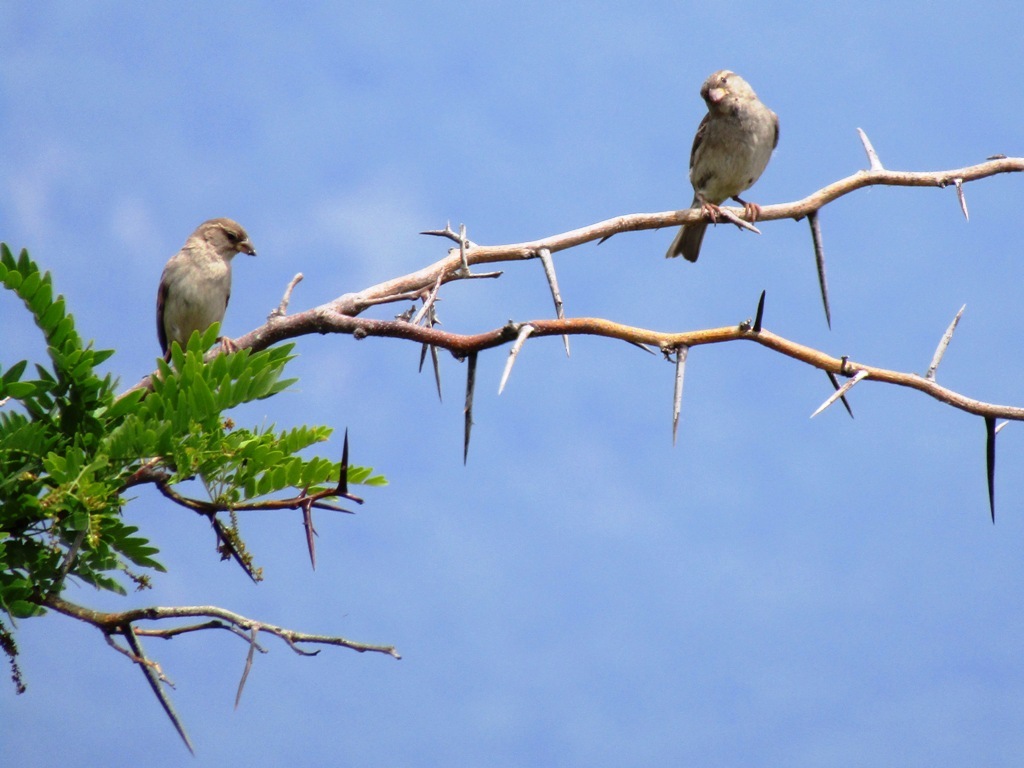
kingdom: Animalia
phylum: Chordata
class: Aves
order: Passeriformes
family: Passeridae
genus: Passer
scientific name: Passer domesticus
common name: House sparrow
